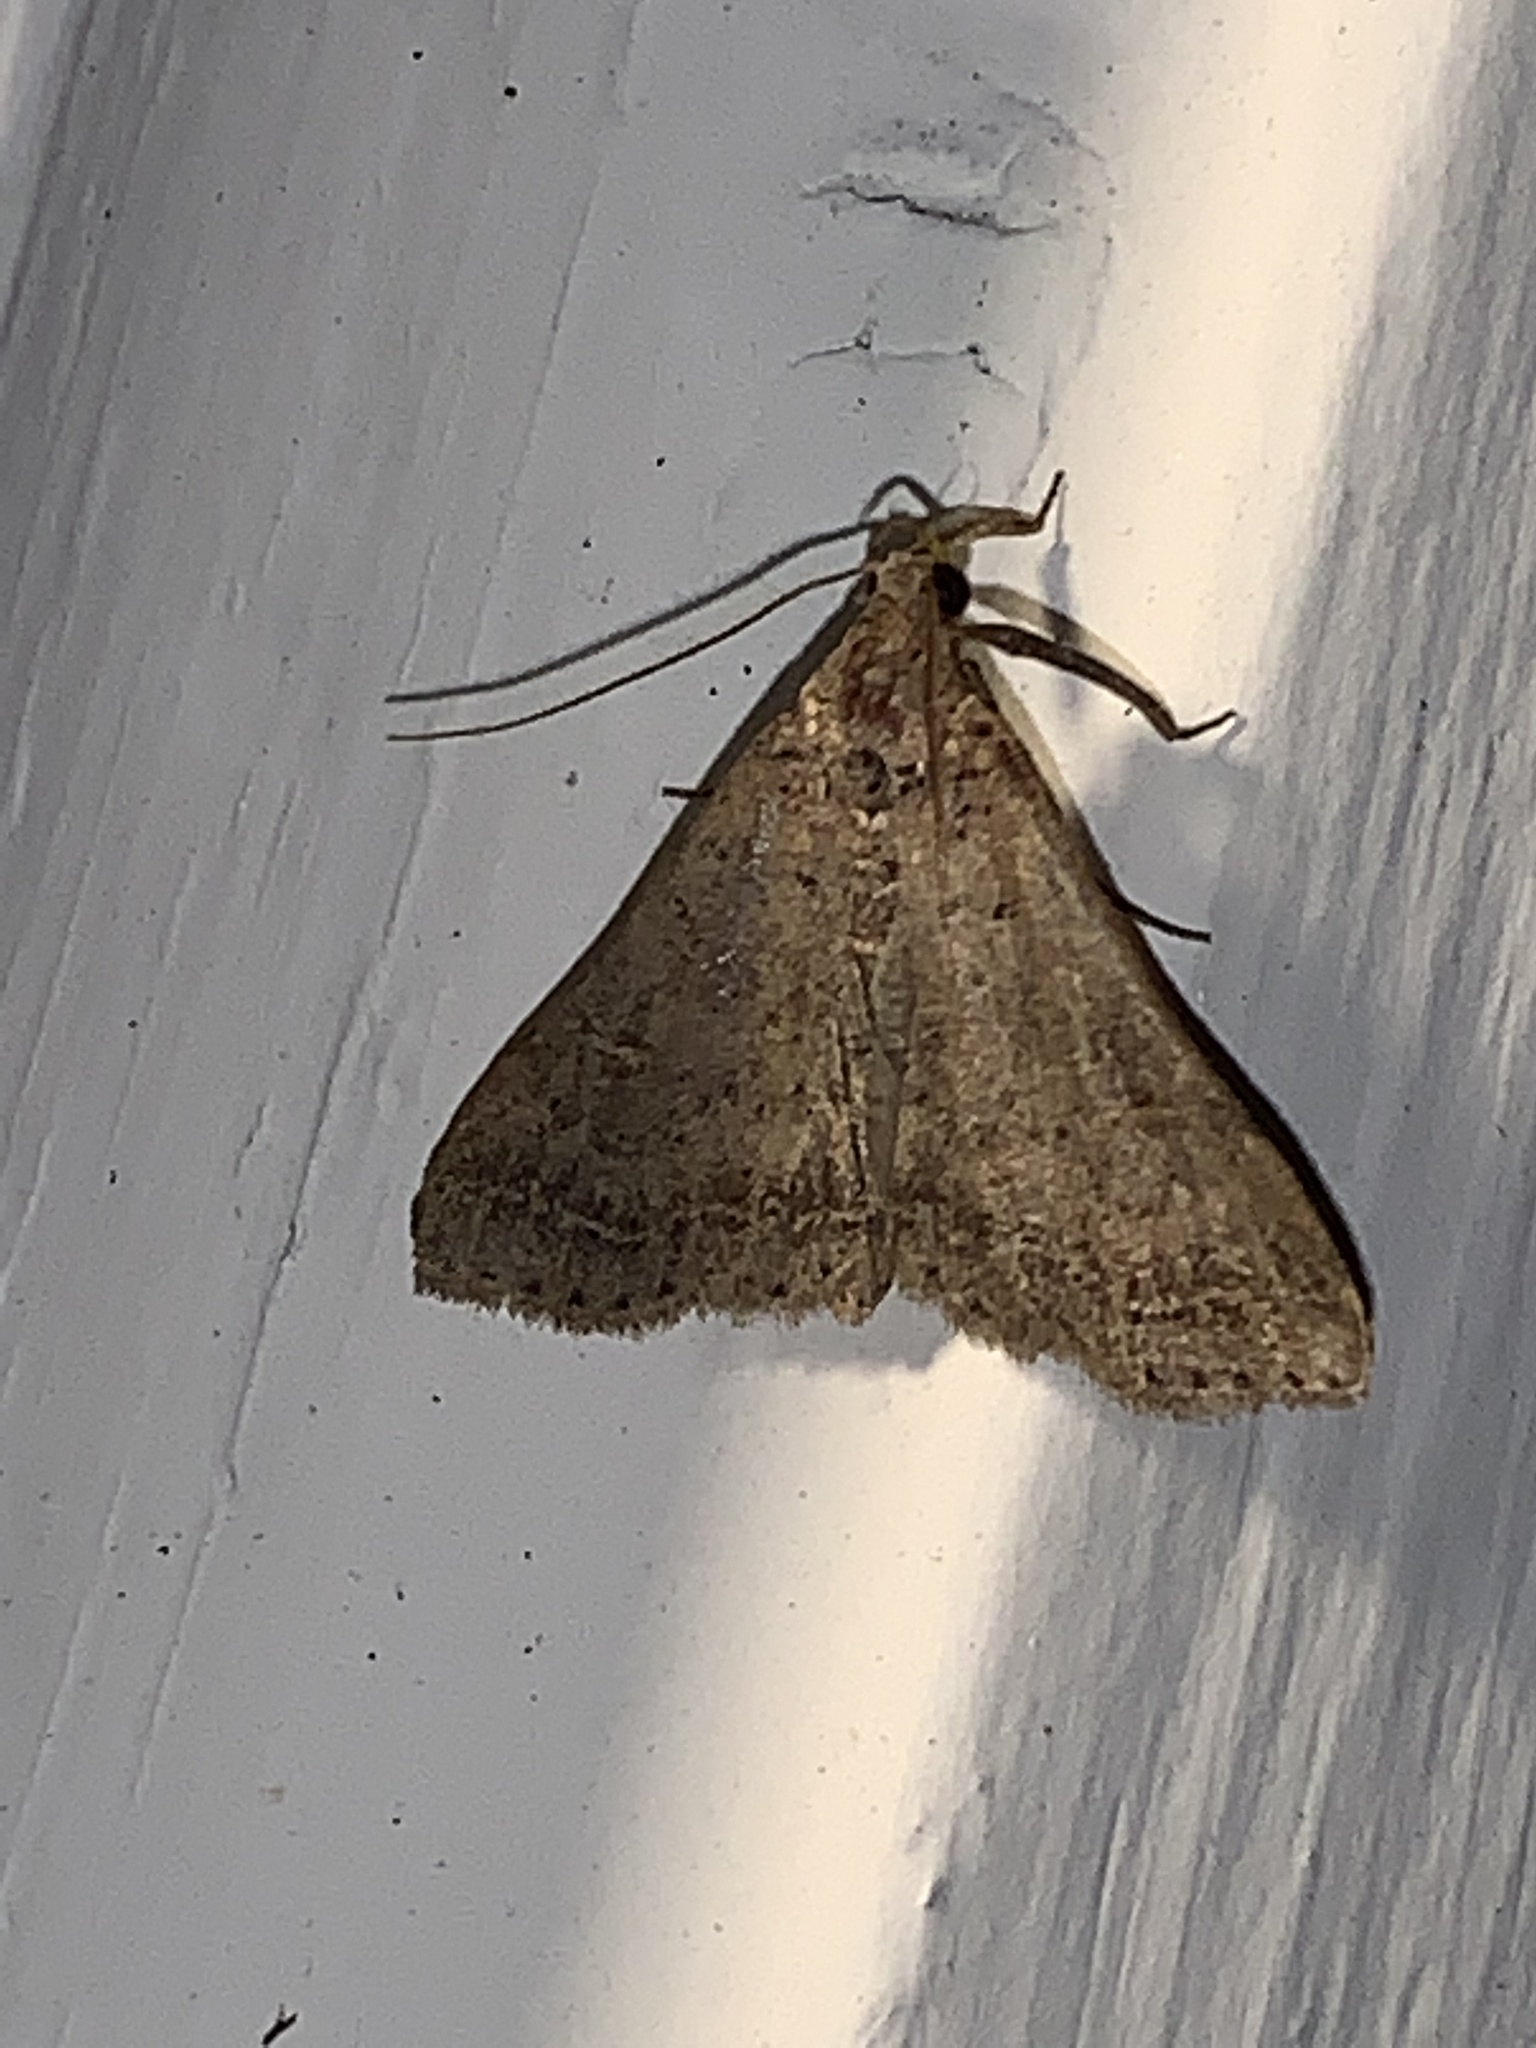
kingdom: Animalia
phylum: Arthropoda
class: Insecta
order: Lepidoptera
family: Erebidae
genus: Bleptina
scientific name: Bleptina caradrinalis
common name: Bent-winged owlet
